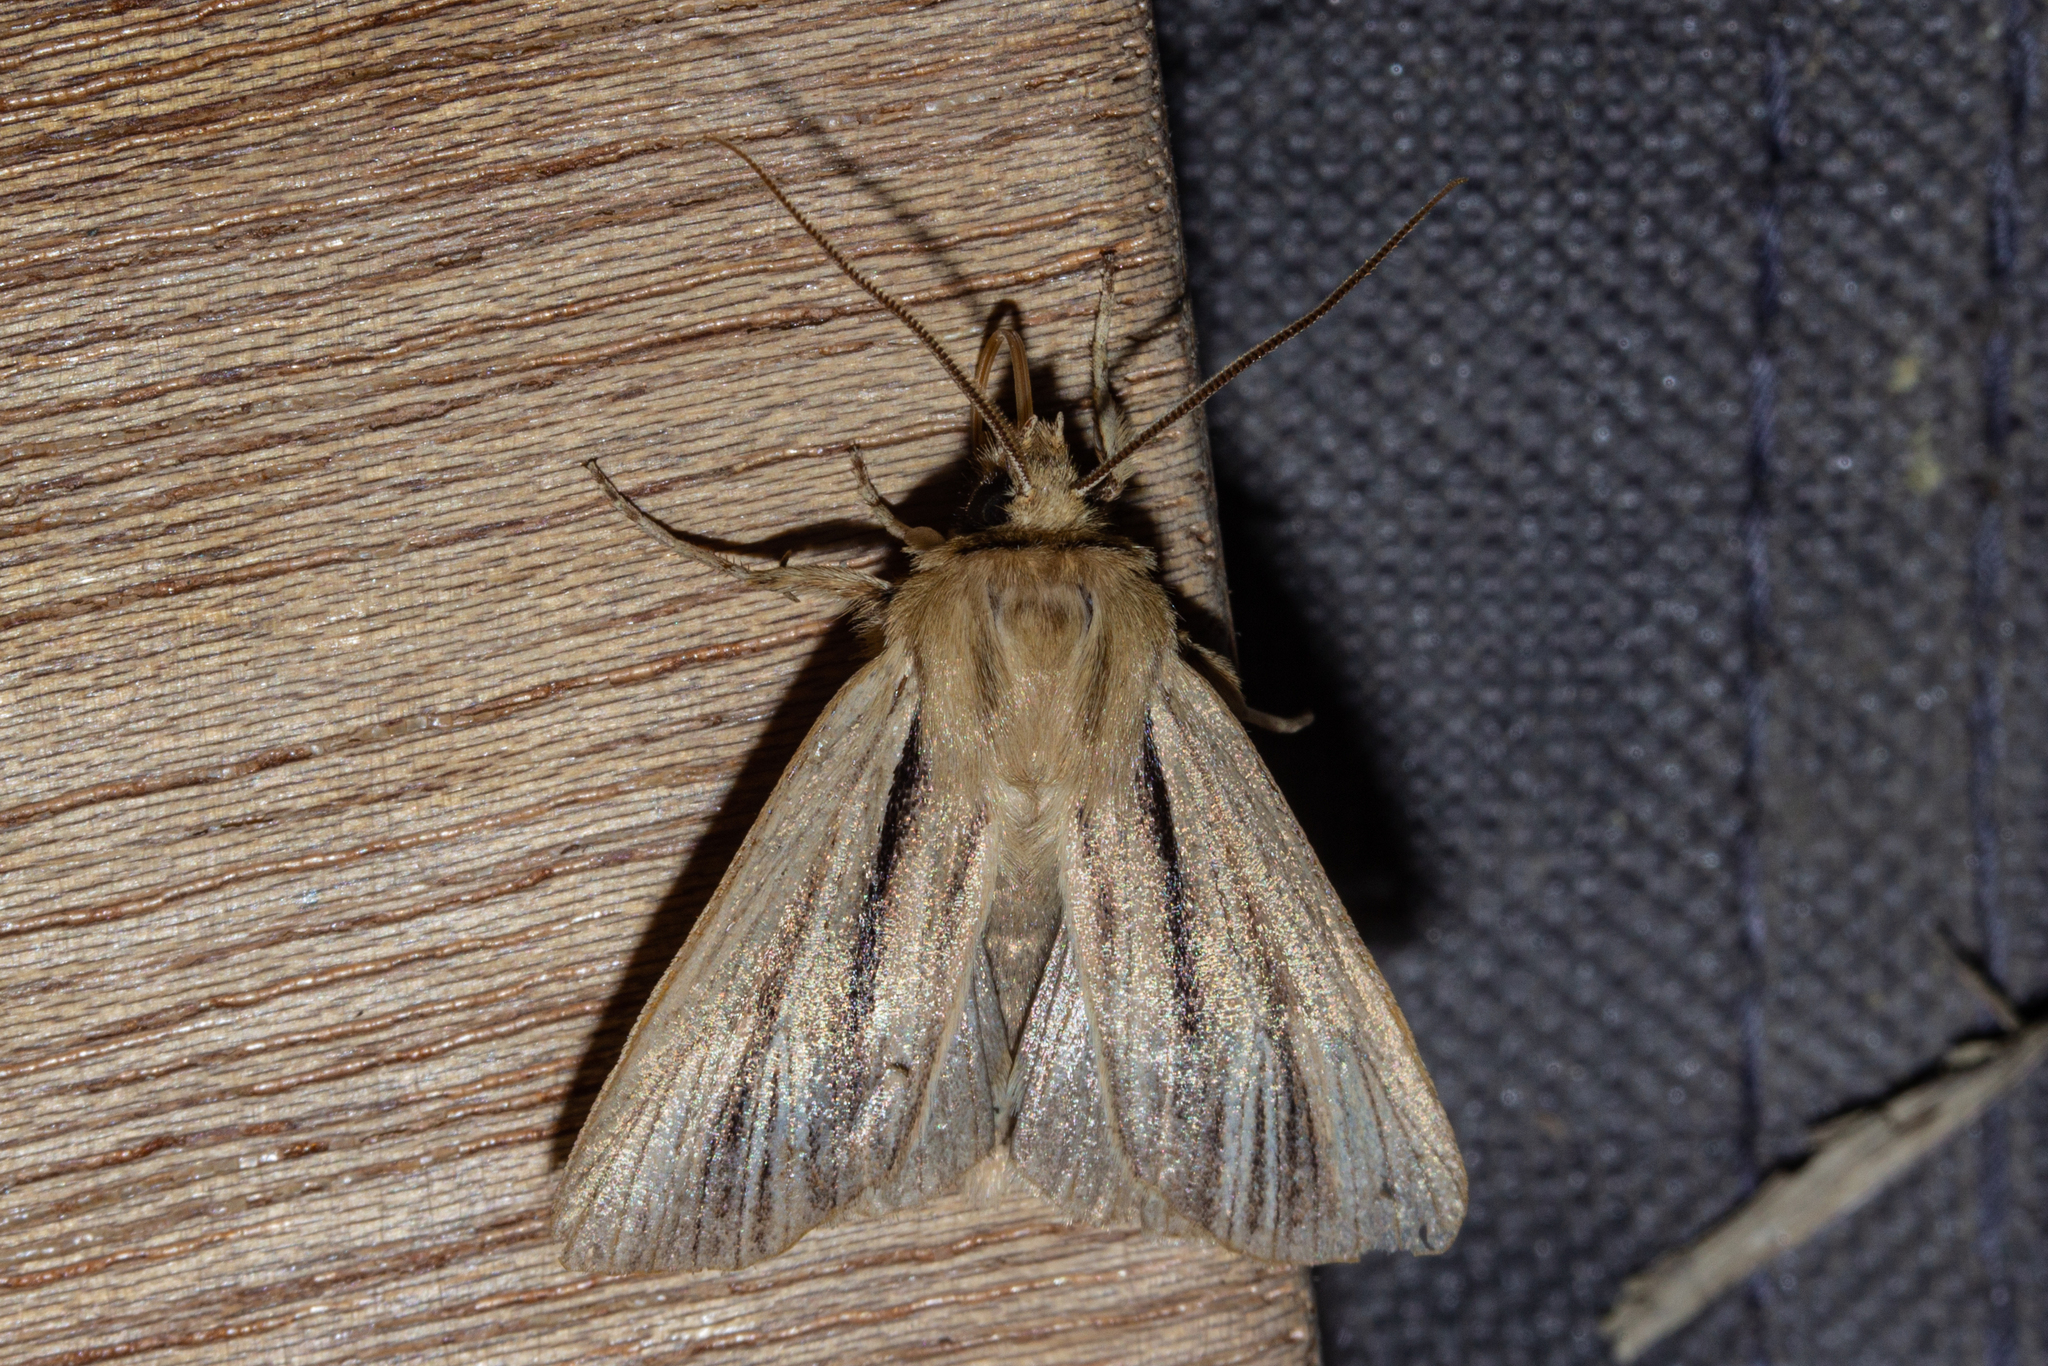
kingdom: Animalia
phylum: Arthropoda
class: Insecta
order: Lepidoptera
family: Noctuidae
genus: Ichneutica
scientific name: Ichneutica
